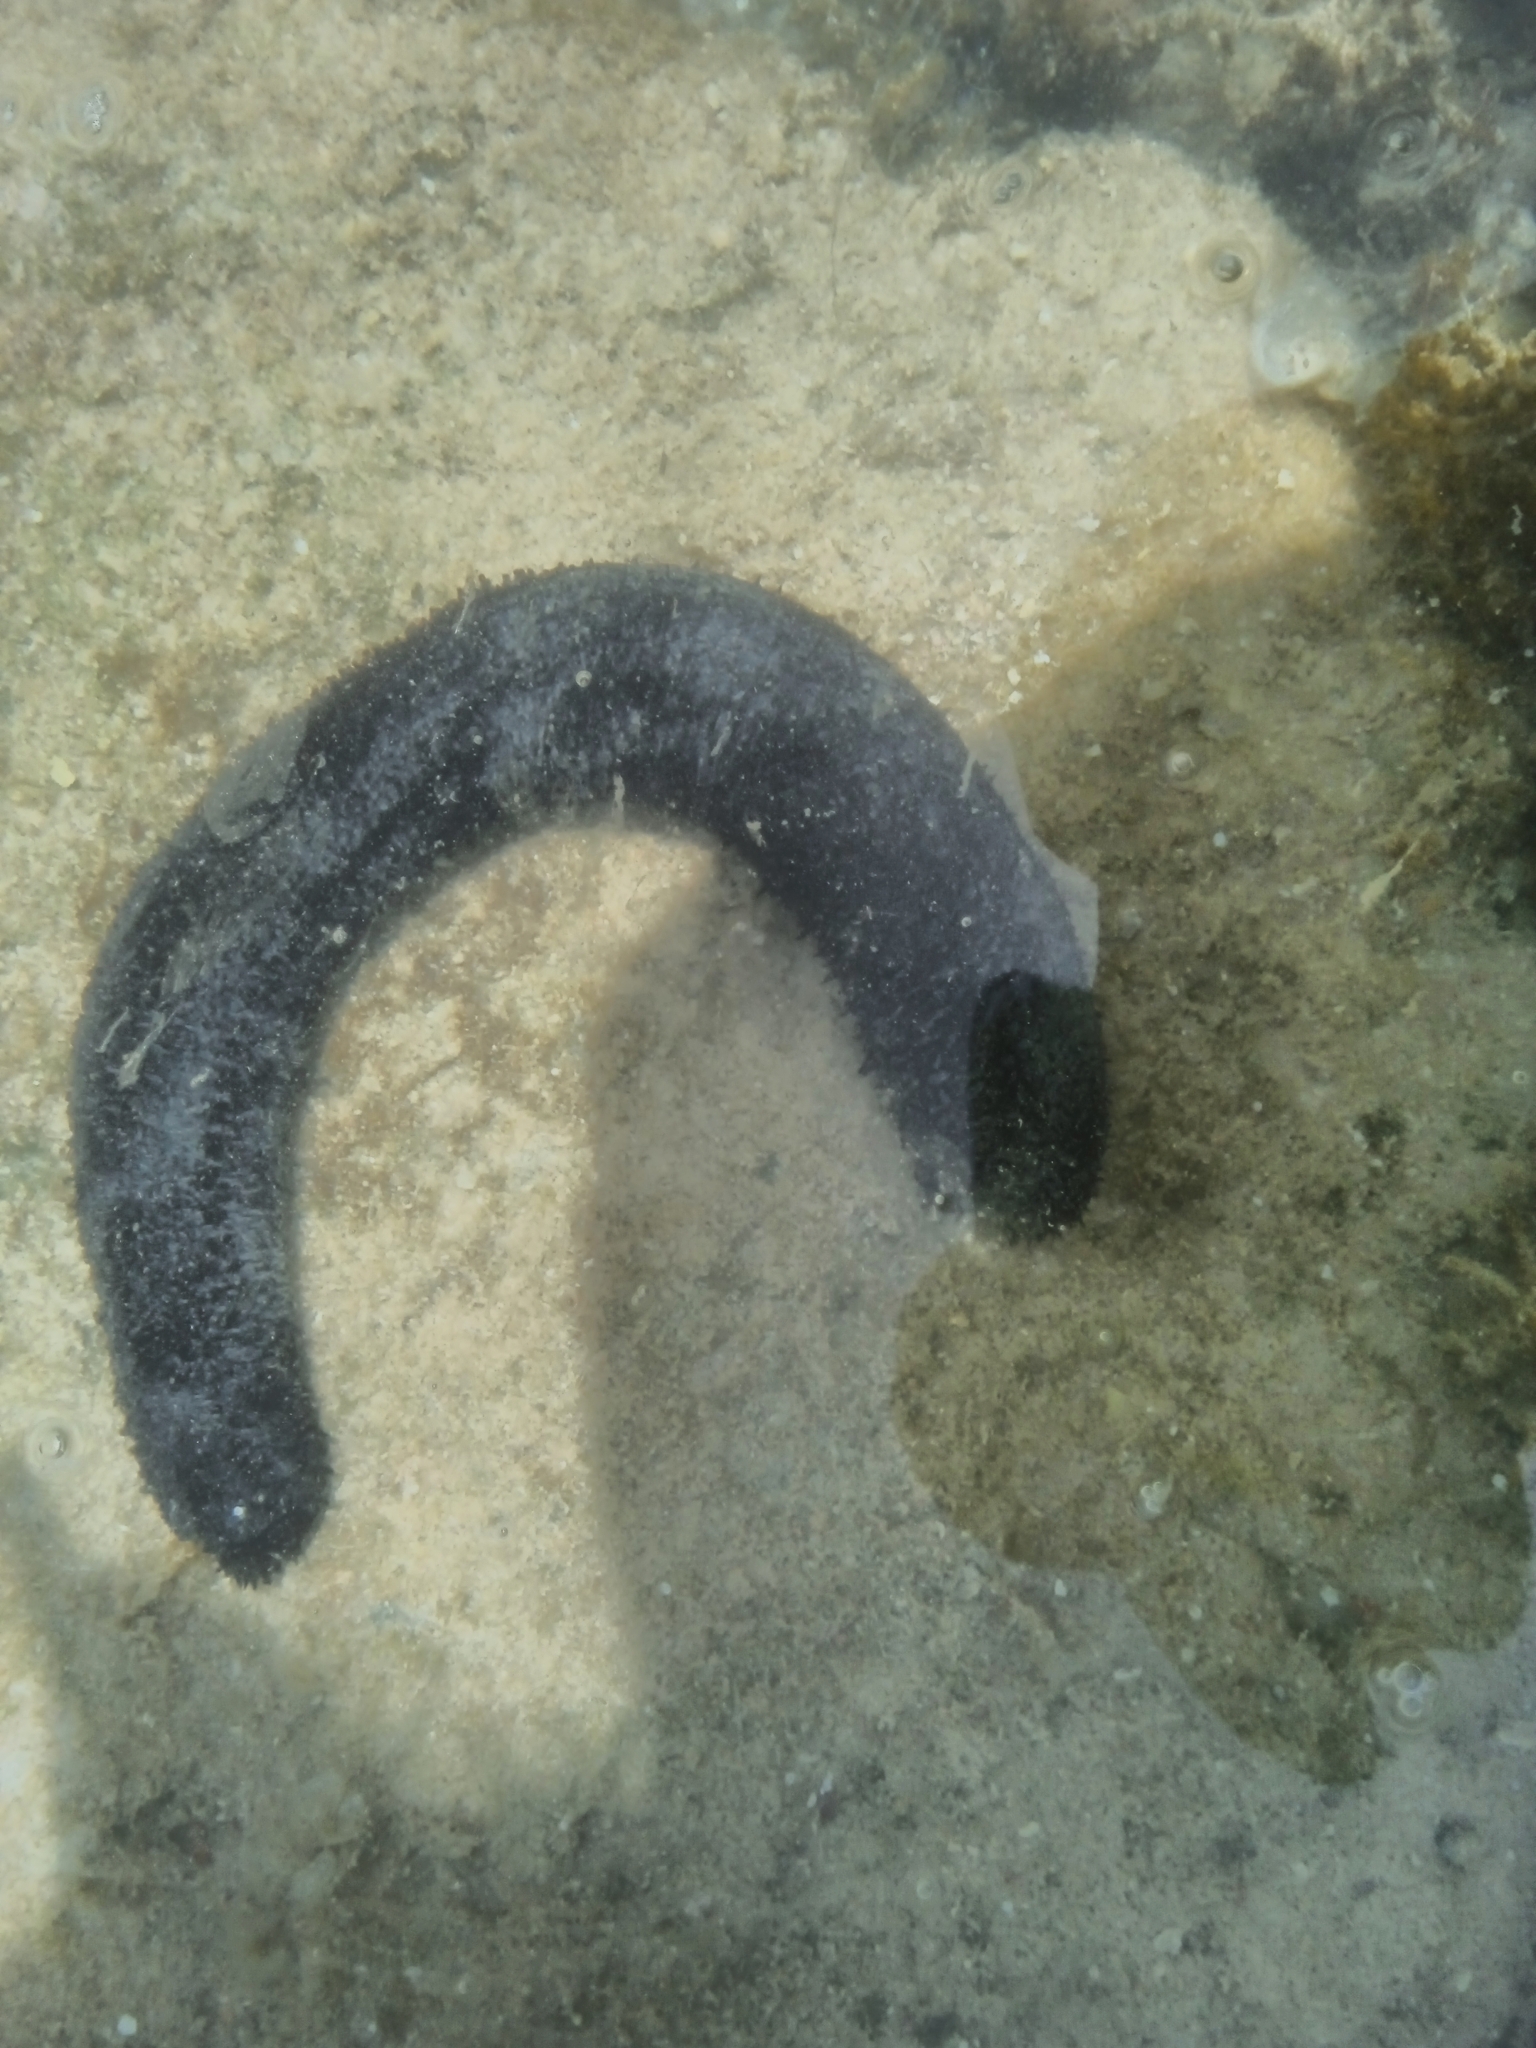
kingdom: Animalia
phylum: Echinodermata
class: Holothuroidea
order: Holothuriida
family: Holothuriidae
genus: Holothuria
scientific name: Holothuria leucospilota
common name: White thread fish
